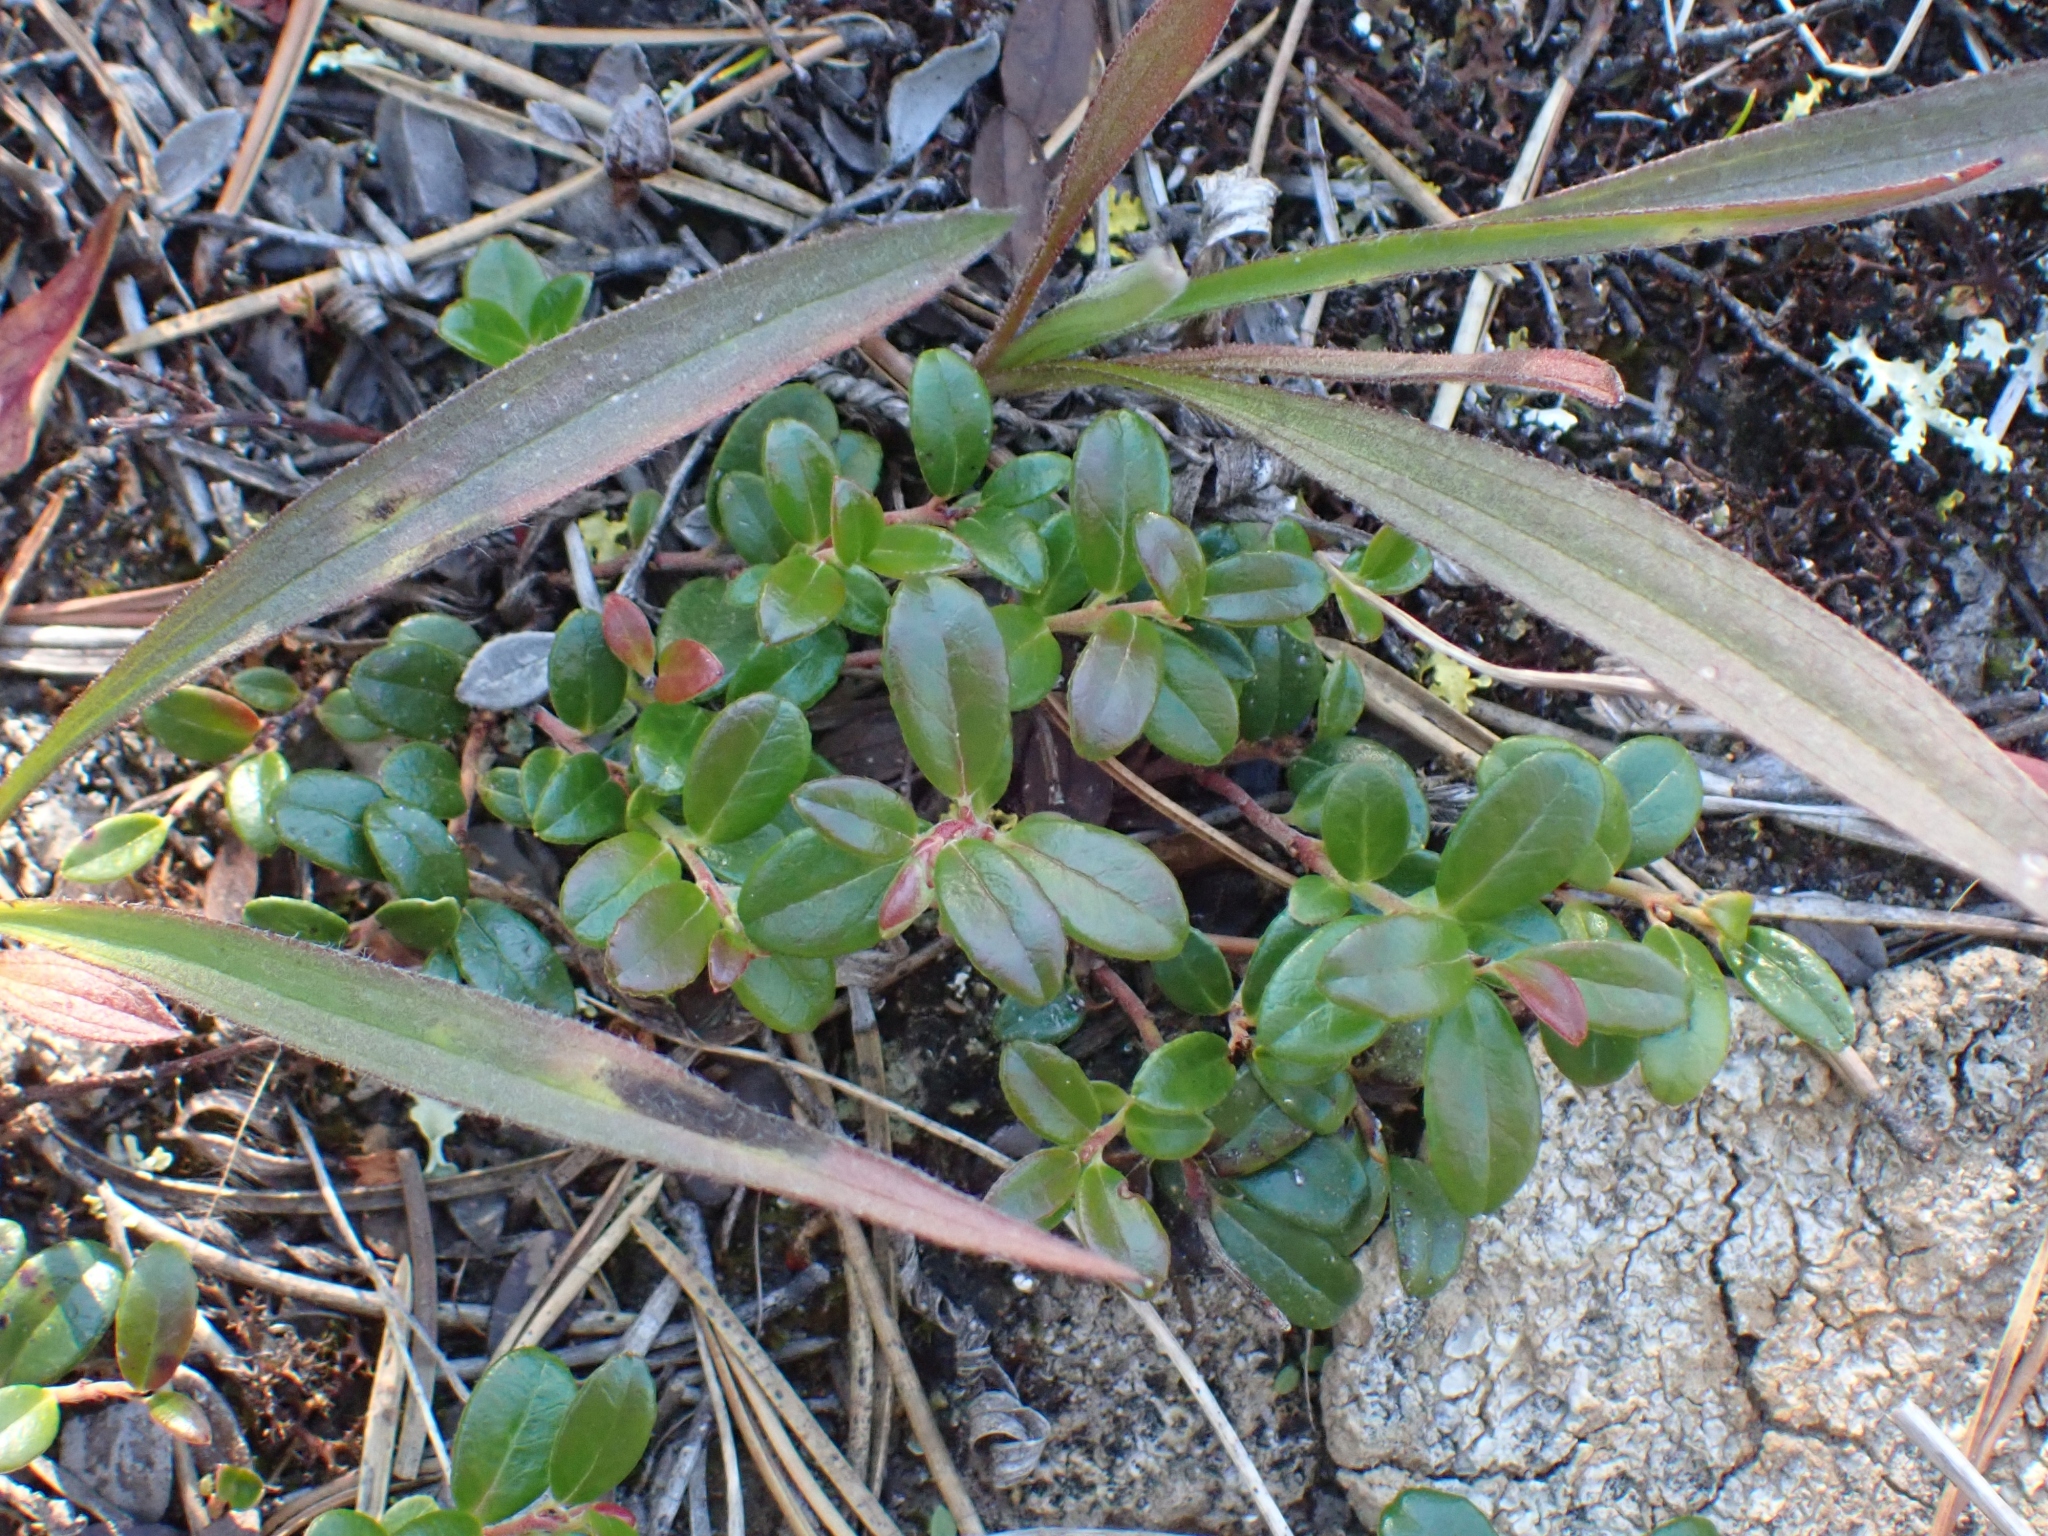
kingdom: Plantae
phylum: Tracheophyta
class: Magnoliopsida
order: Ericales
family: Ericaceae
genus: Vaccinium
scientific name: Vaccinium vitis-idaea
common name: Cowberry
